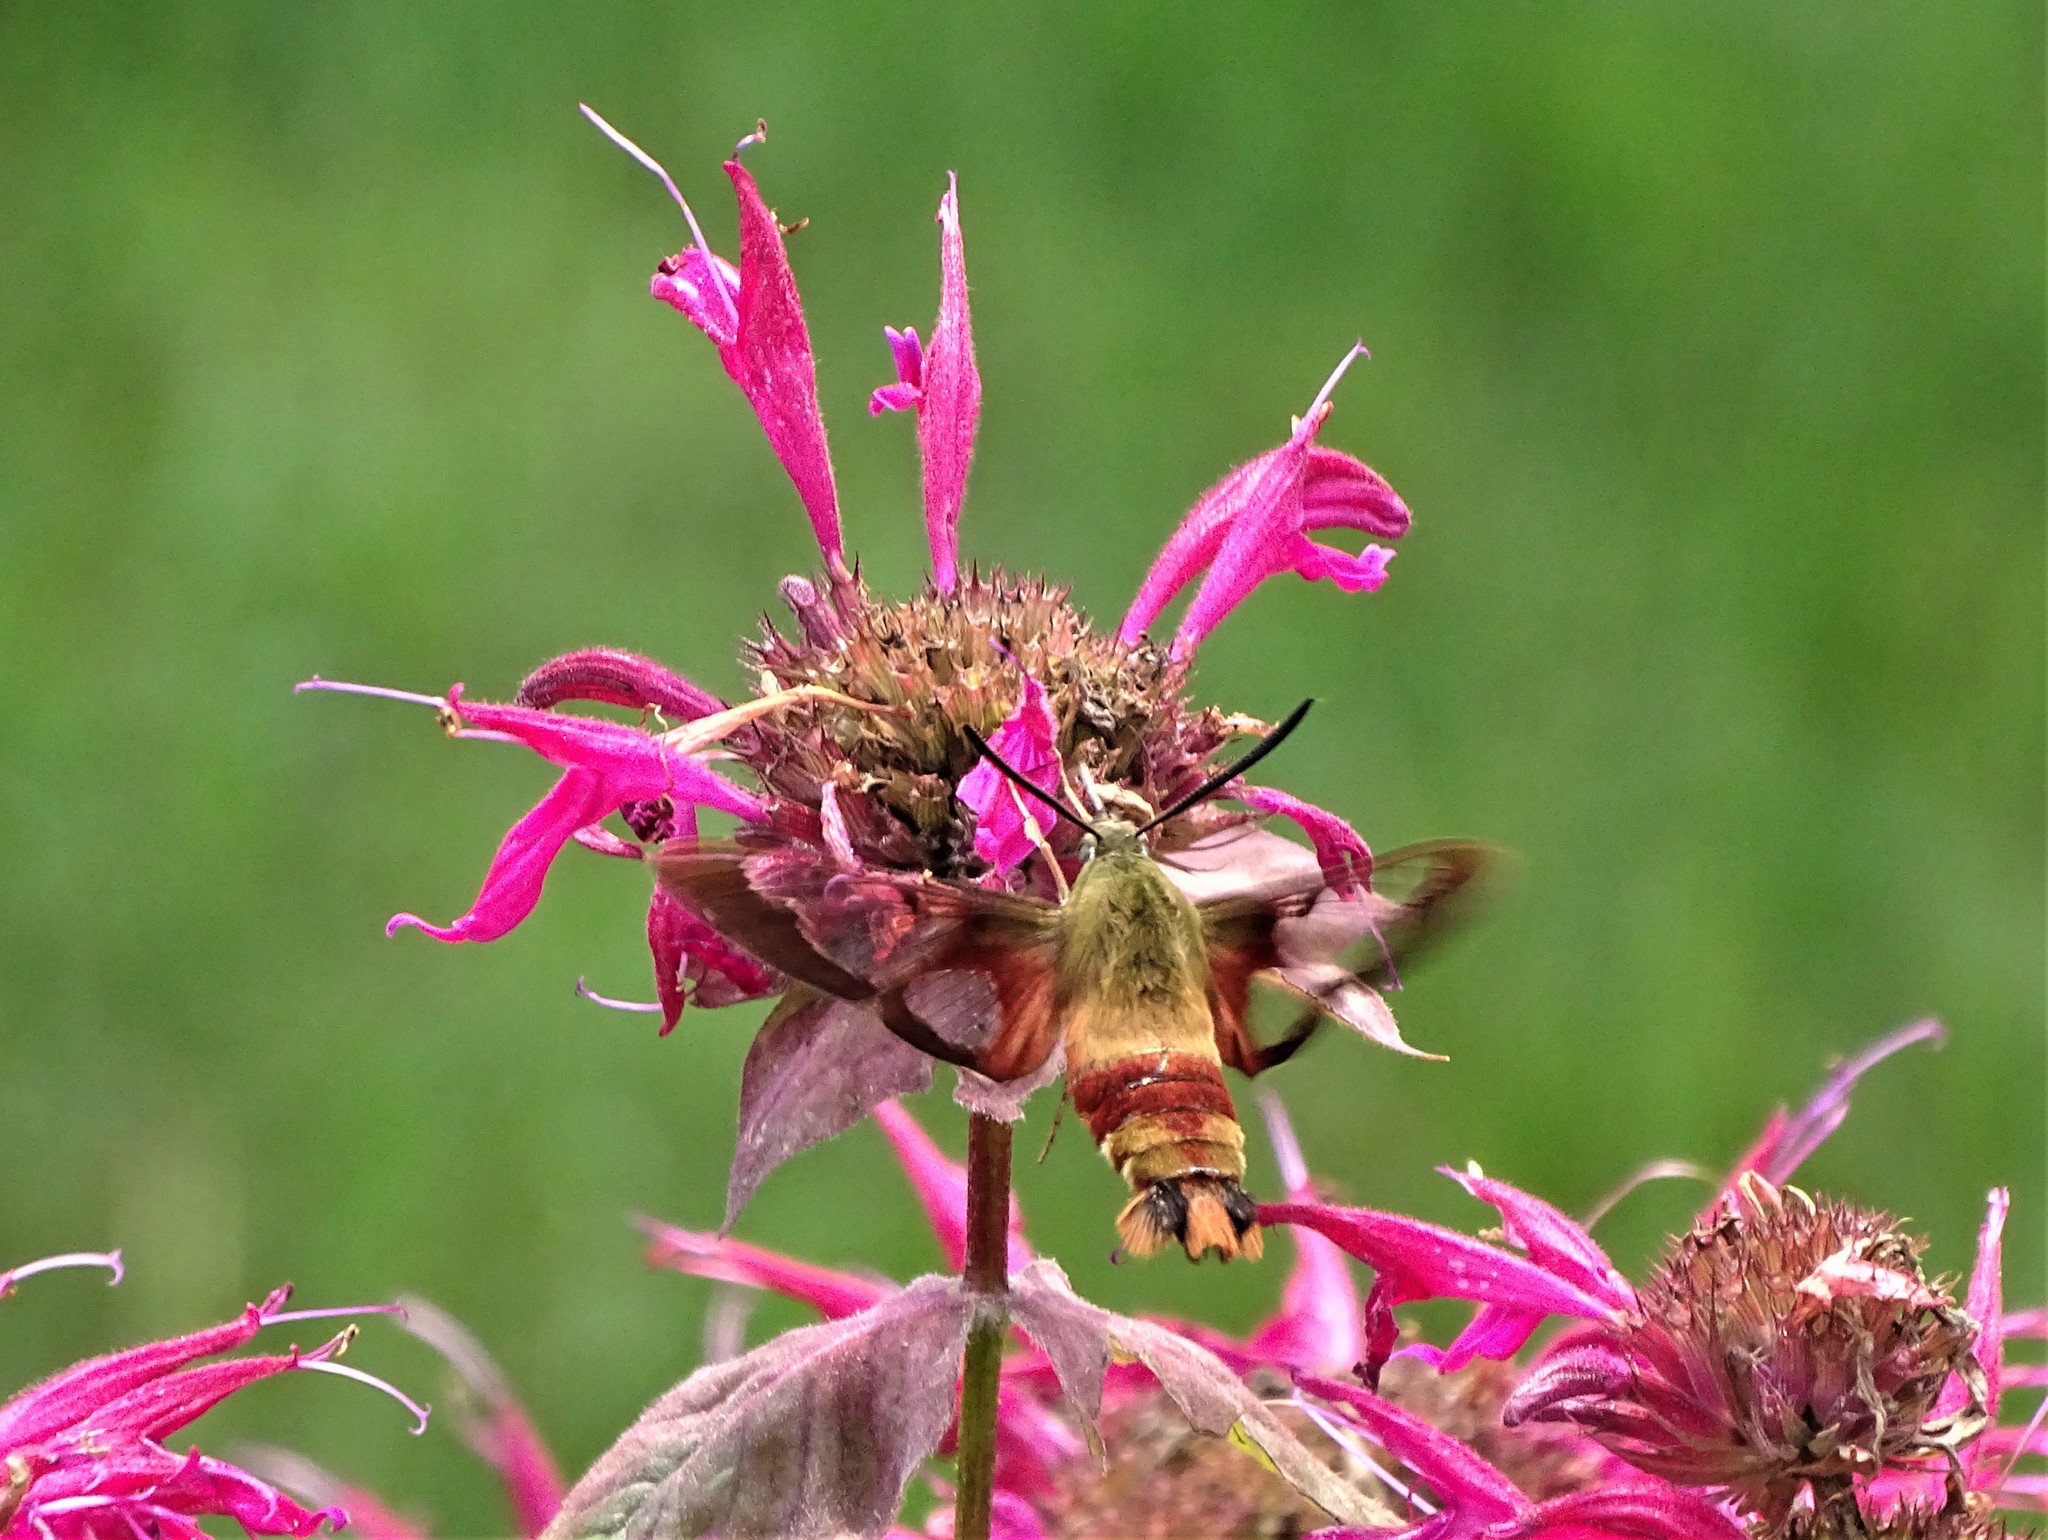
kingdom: Animalia
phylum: Arthropoda
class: Insecta
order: Lepidoptera
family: Sphingidae
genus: Hemaris
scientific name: Hemaris thysbe
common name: Common clear-wing
